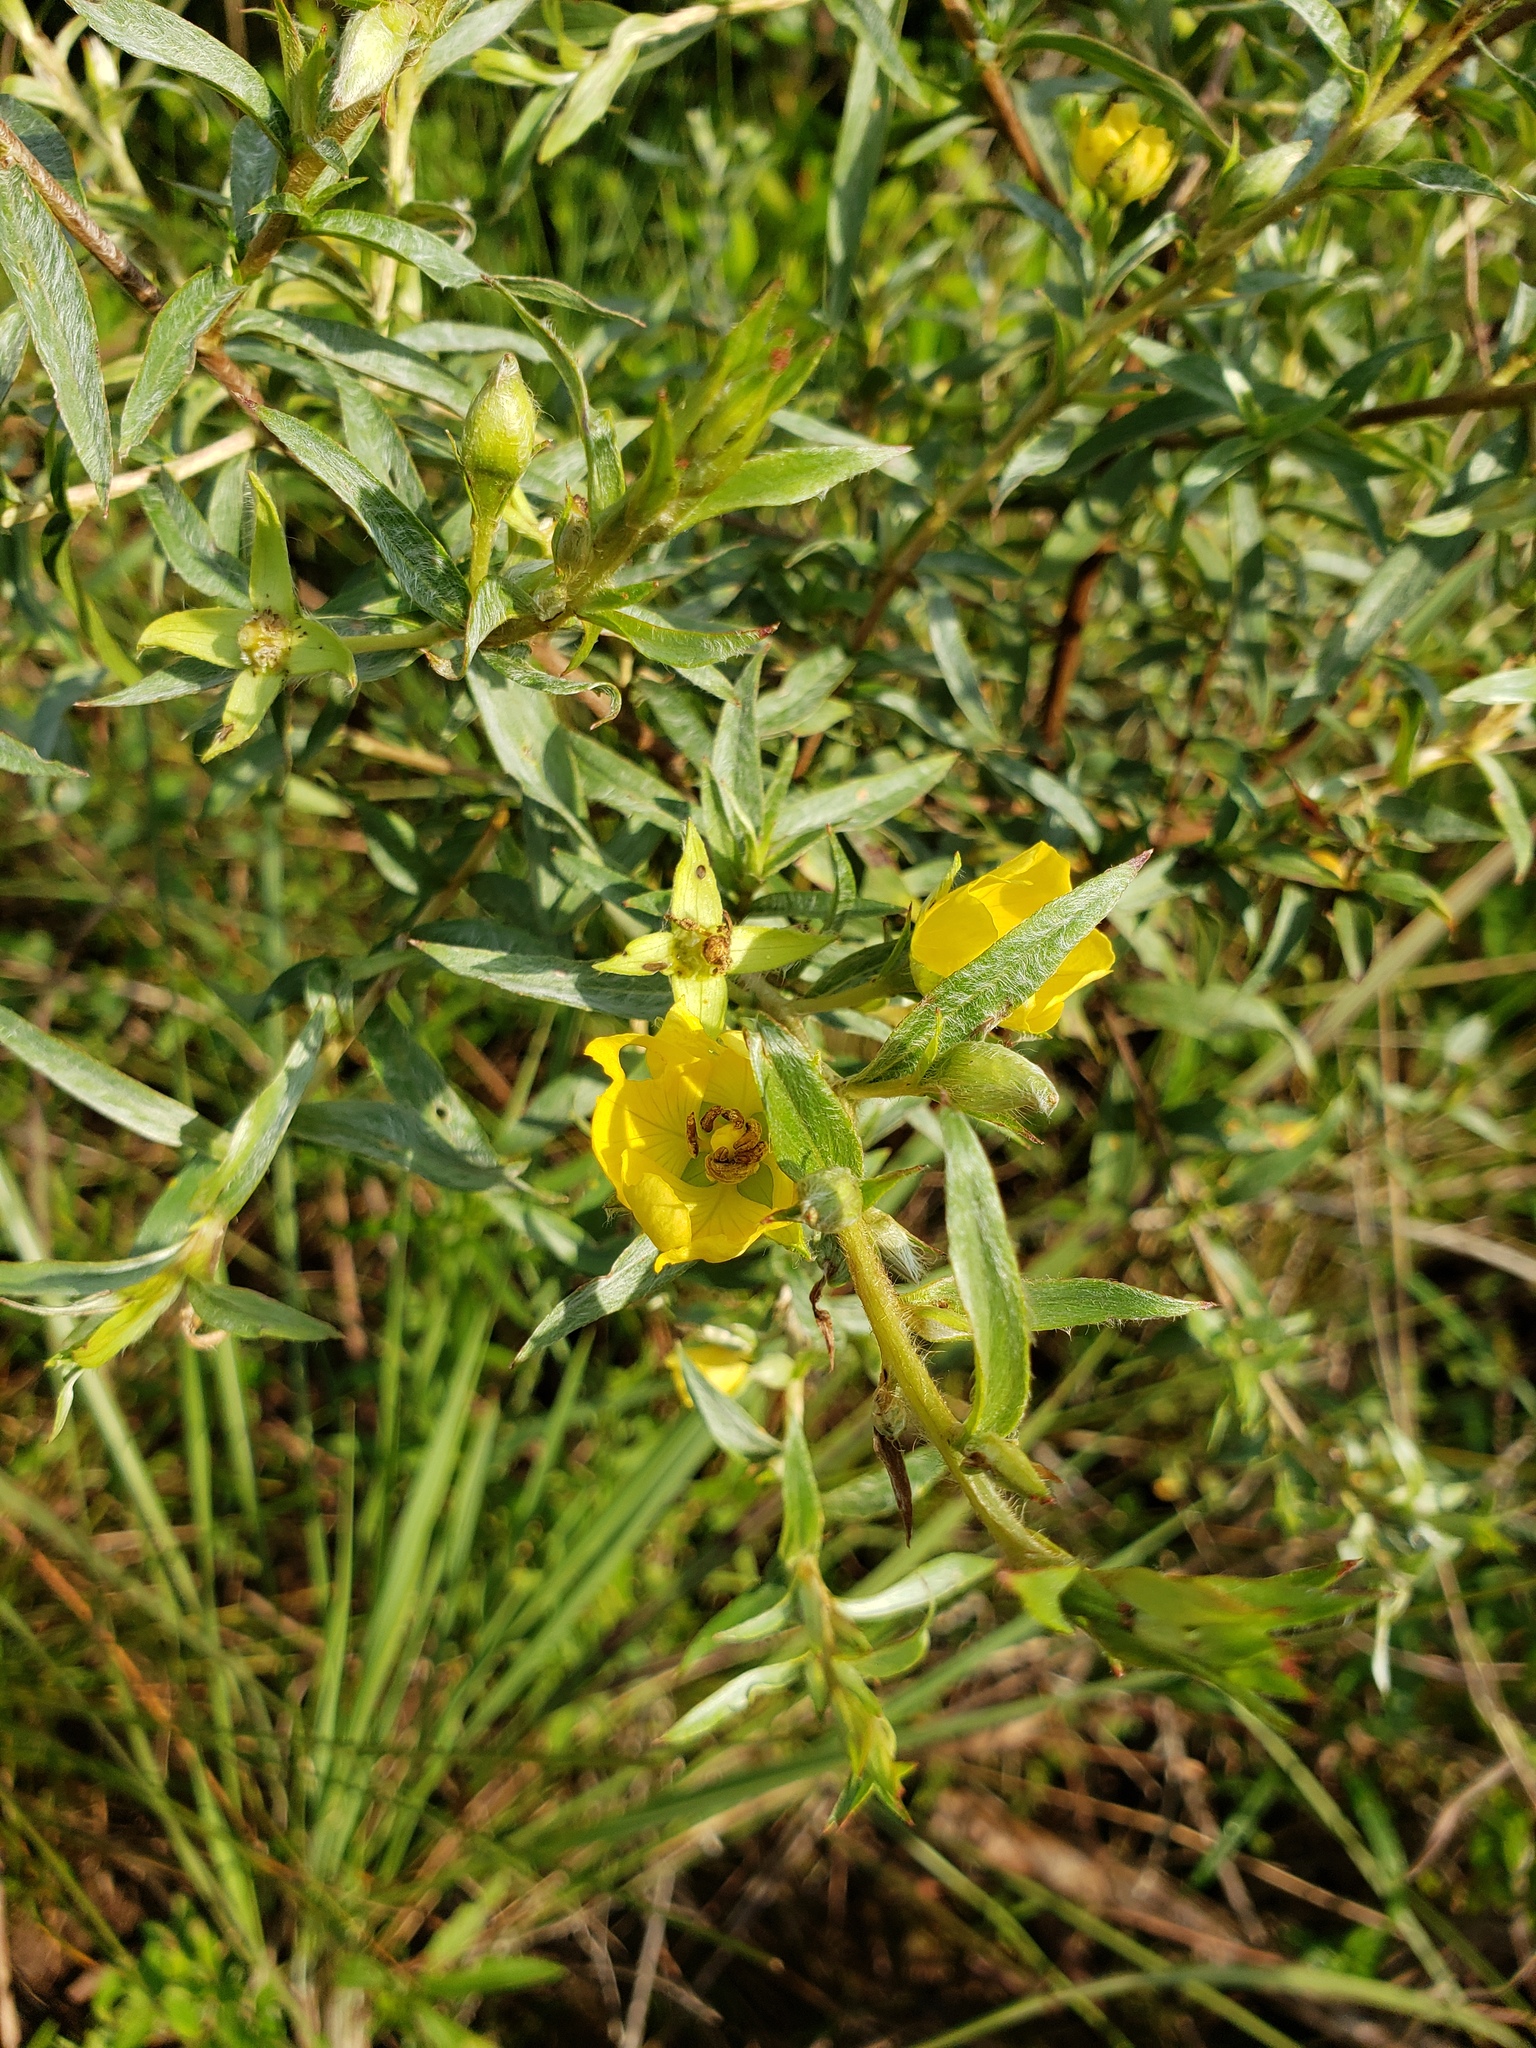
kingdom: Plantae
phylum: Tracheophyta
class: Magnoliopsida
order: Myrtales
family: Onagraceae
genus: Ludwigia
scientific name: Ludwigia sericea
